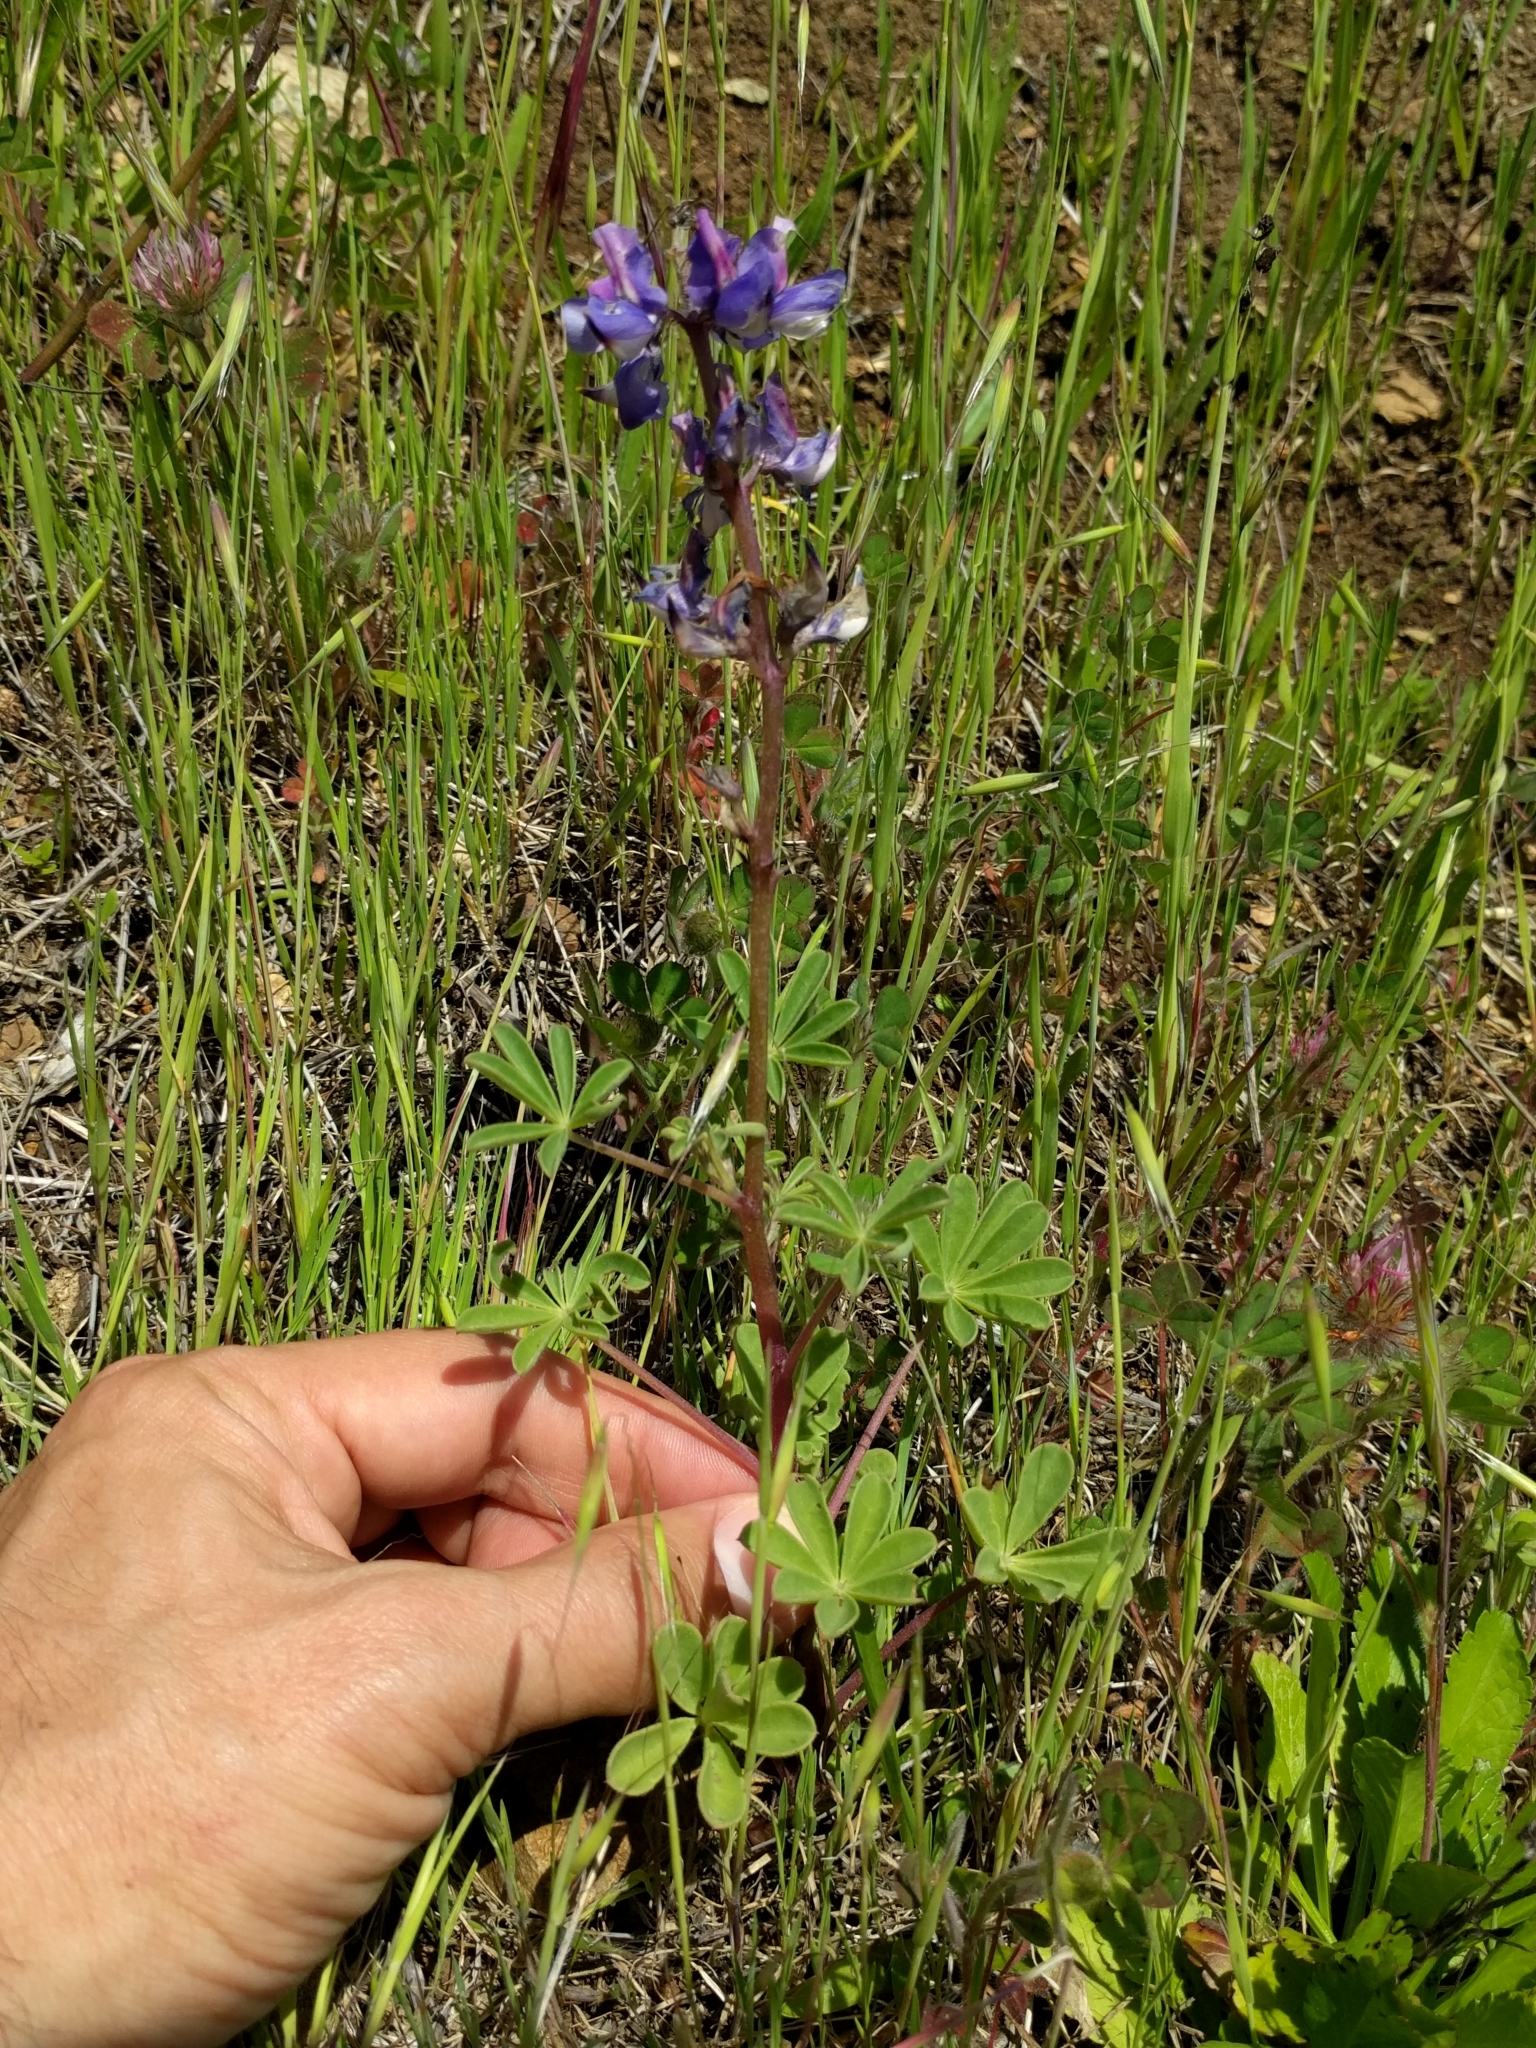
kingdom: Plantae
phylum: Tracheophyta
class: Magnoliopsida
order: Fabales
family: Fabaceae
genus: Lupinus
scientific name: Lupinus succulentus
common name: Arroyo lupine
